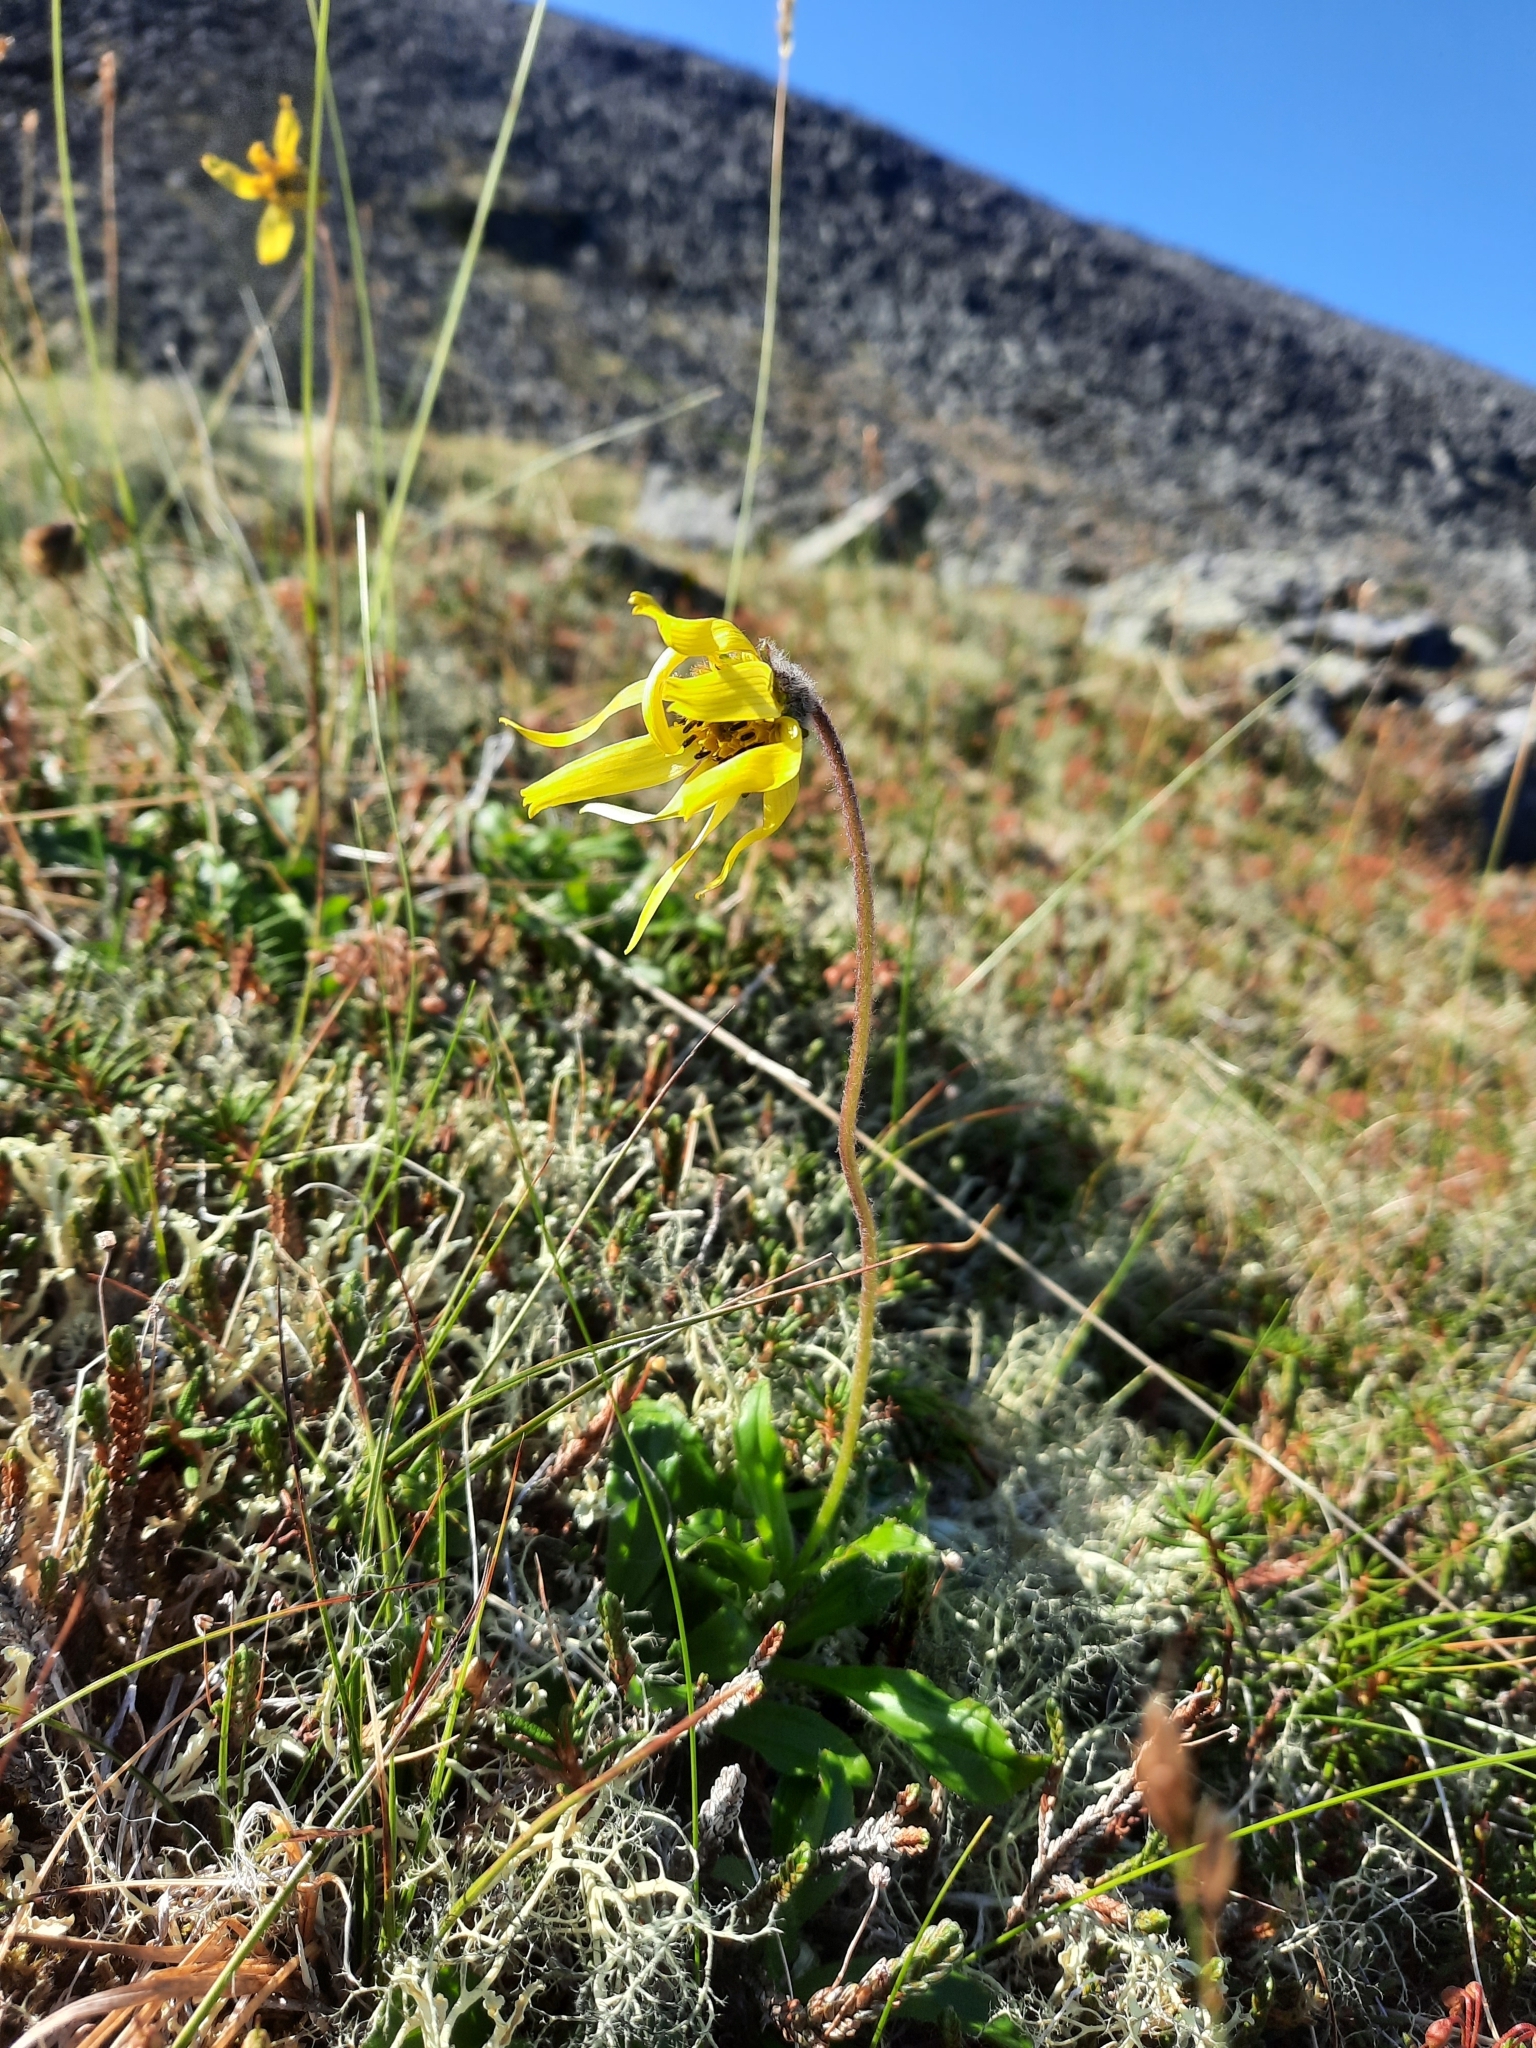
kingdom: Plantae
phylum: Tracheophyta
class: Magnoliopsida
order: Asterales
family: Asteraceae
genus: Arnica
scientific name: Arnica lessingii
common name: Nodding arnica
